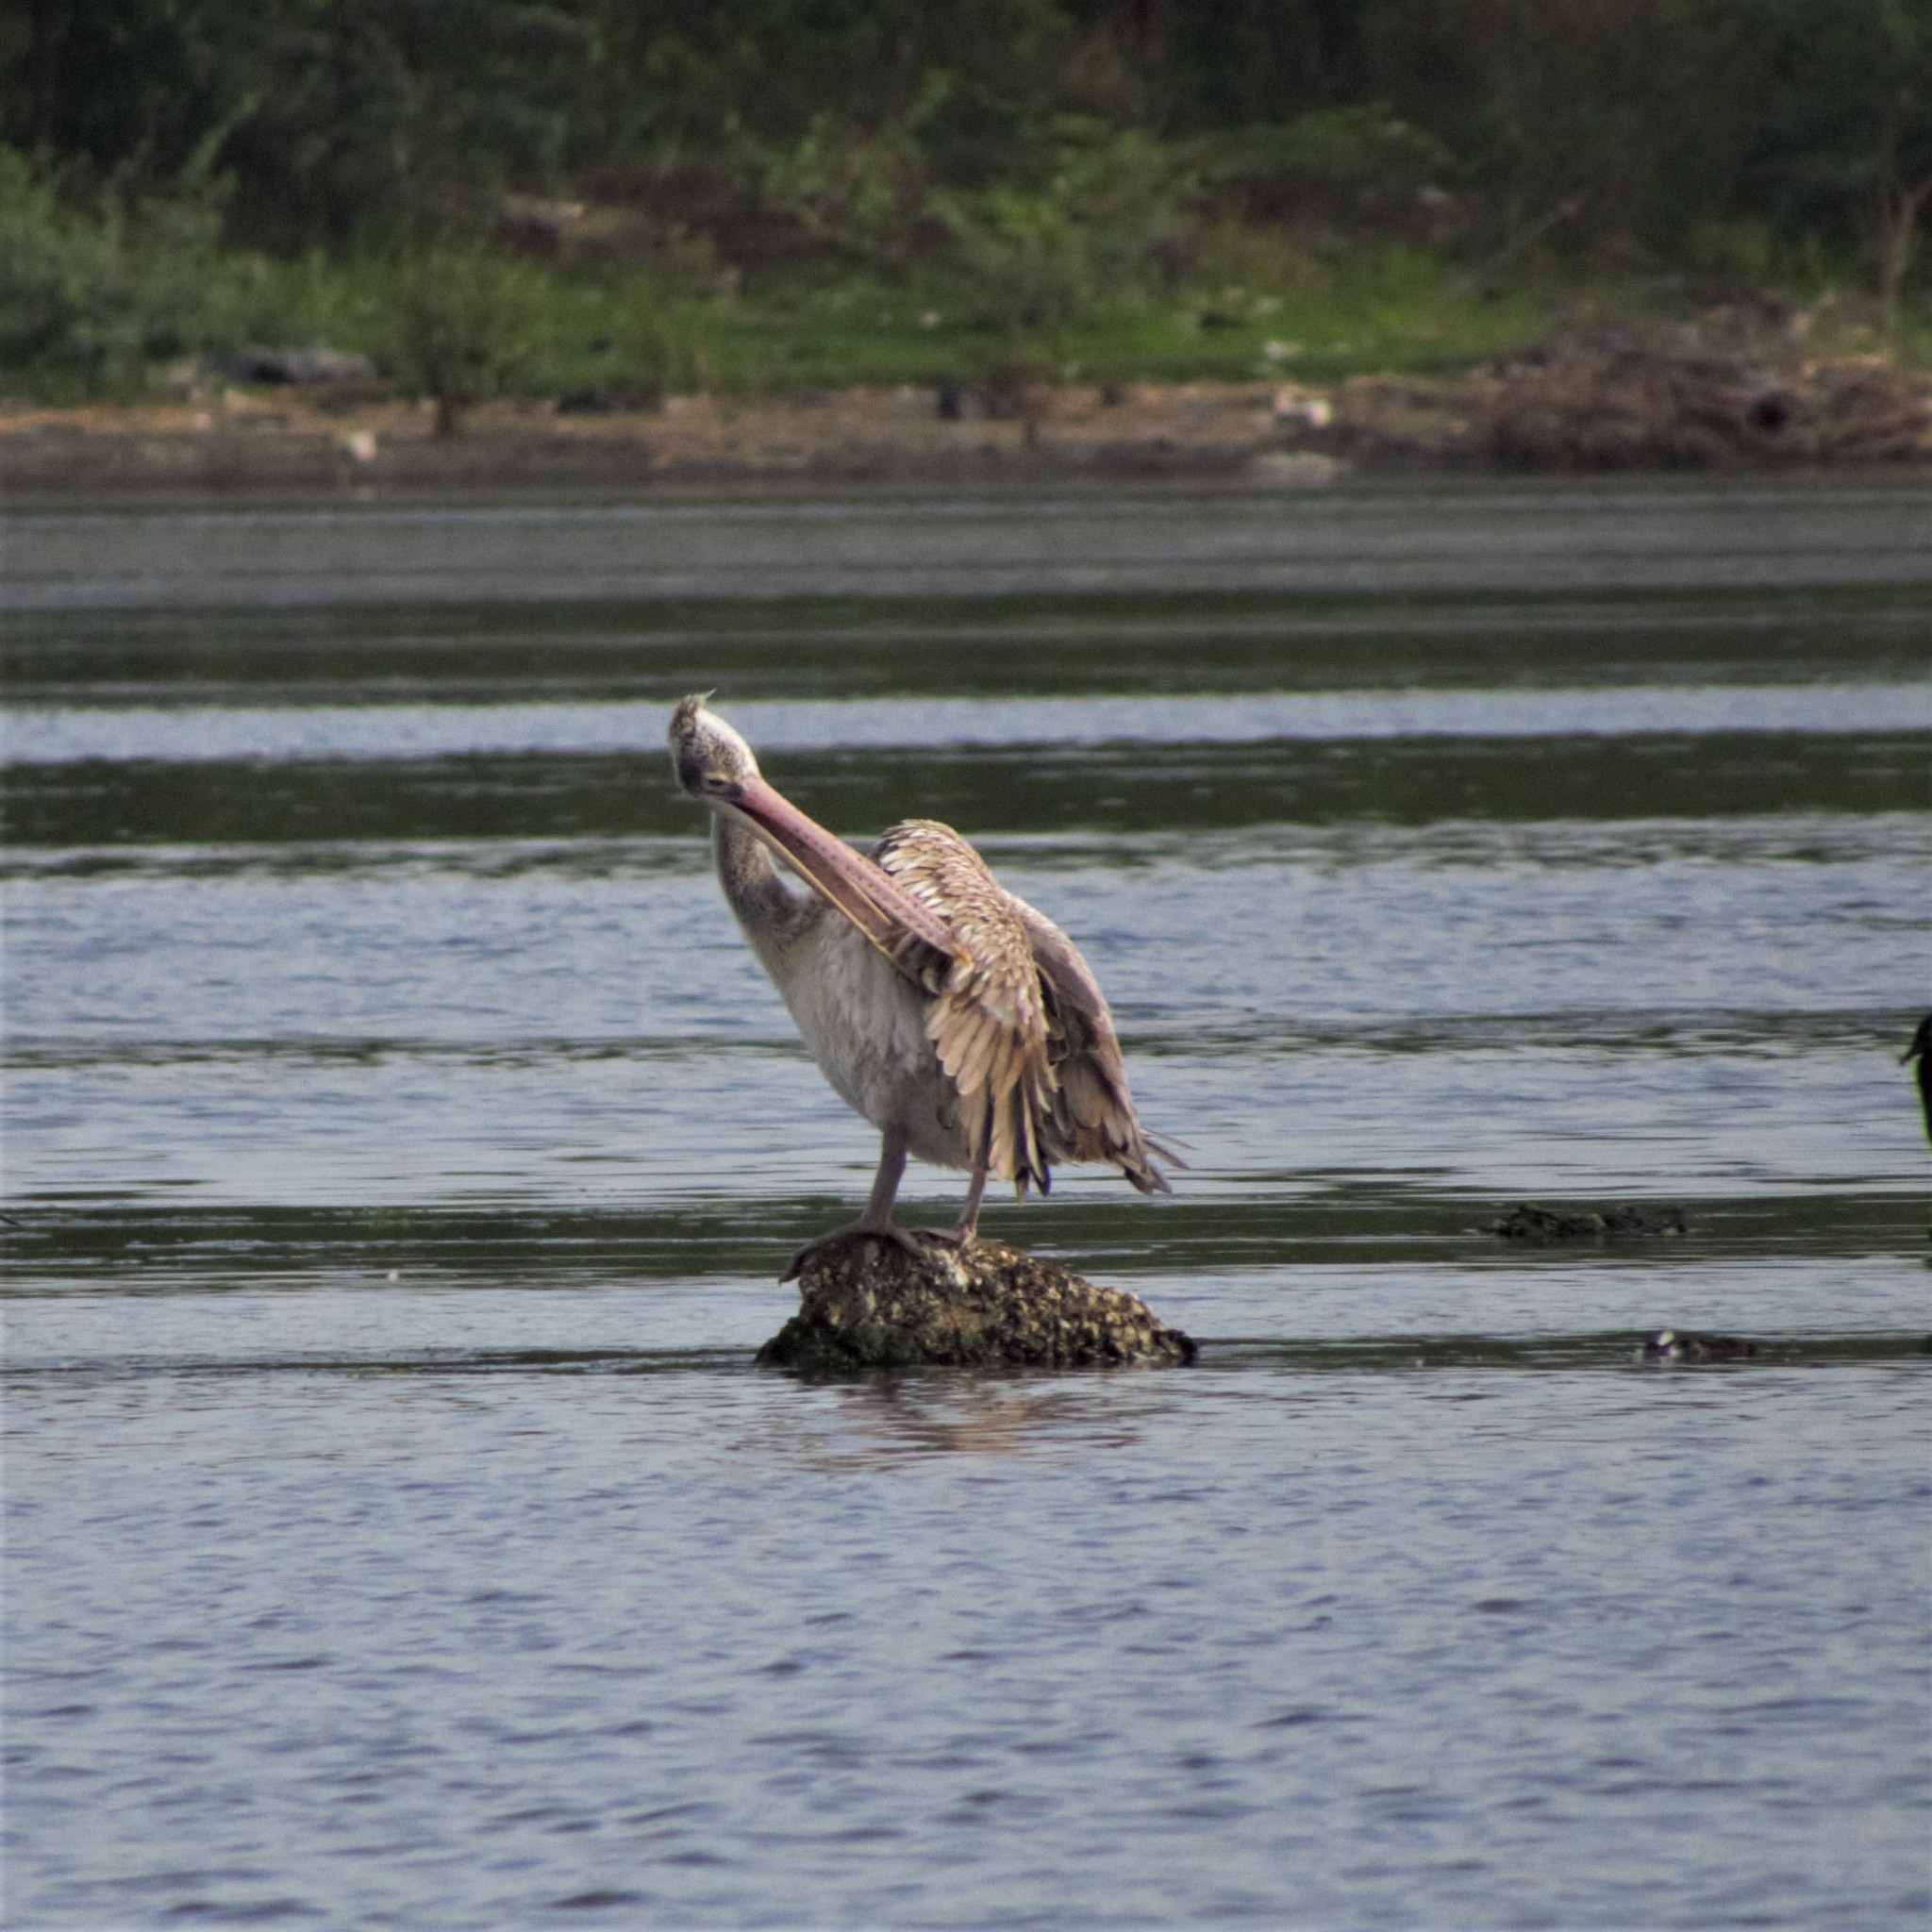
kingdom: Animalia
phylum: Chordata
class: Aves
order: Pelecaniformes
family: Pelecanidae
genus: Pelecanus
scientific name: Pelecanus philippensis
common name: Spot-billed pelican
